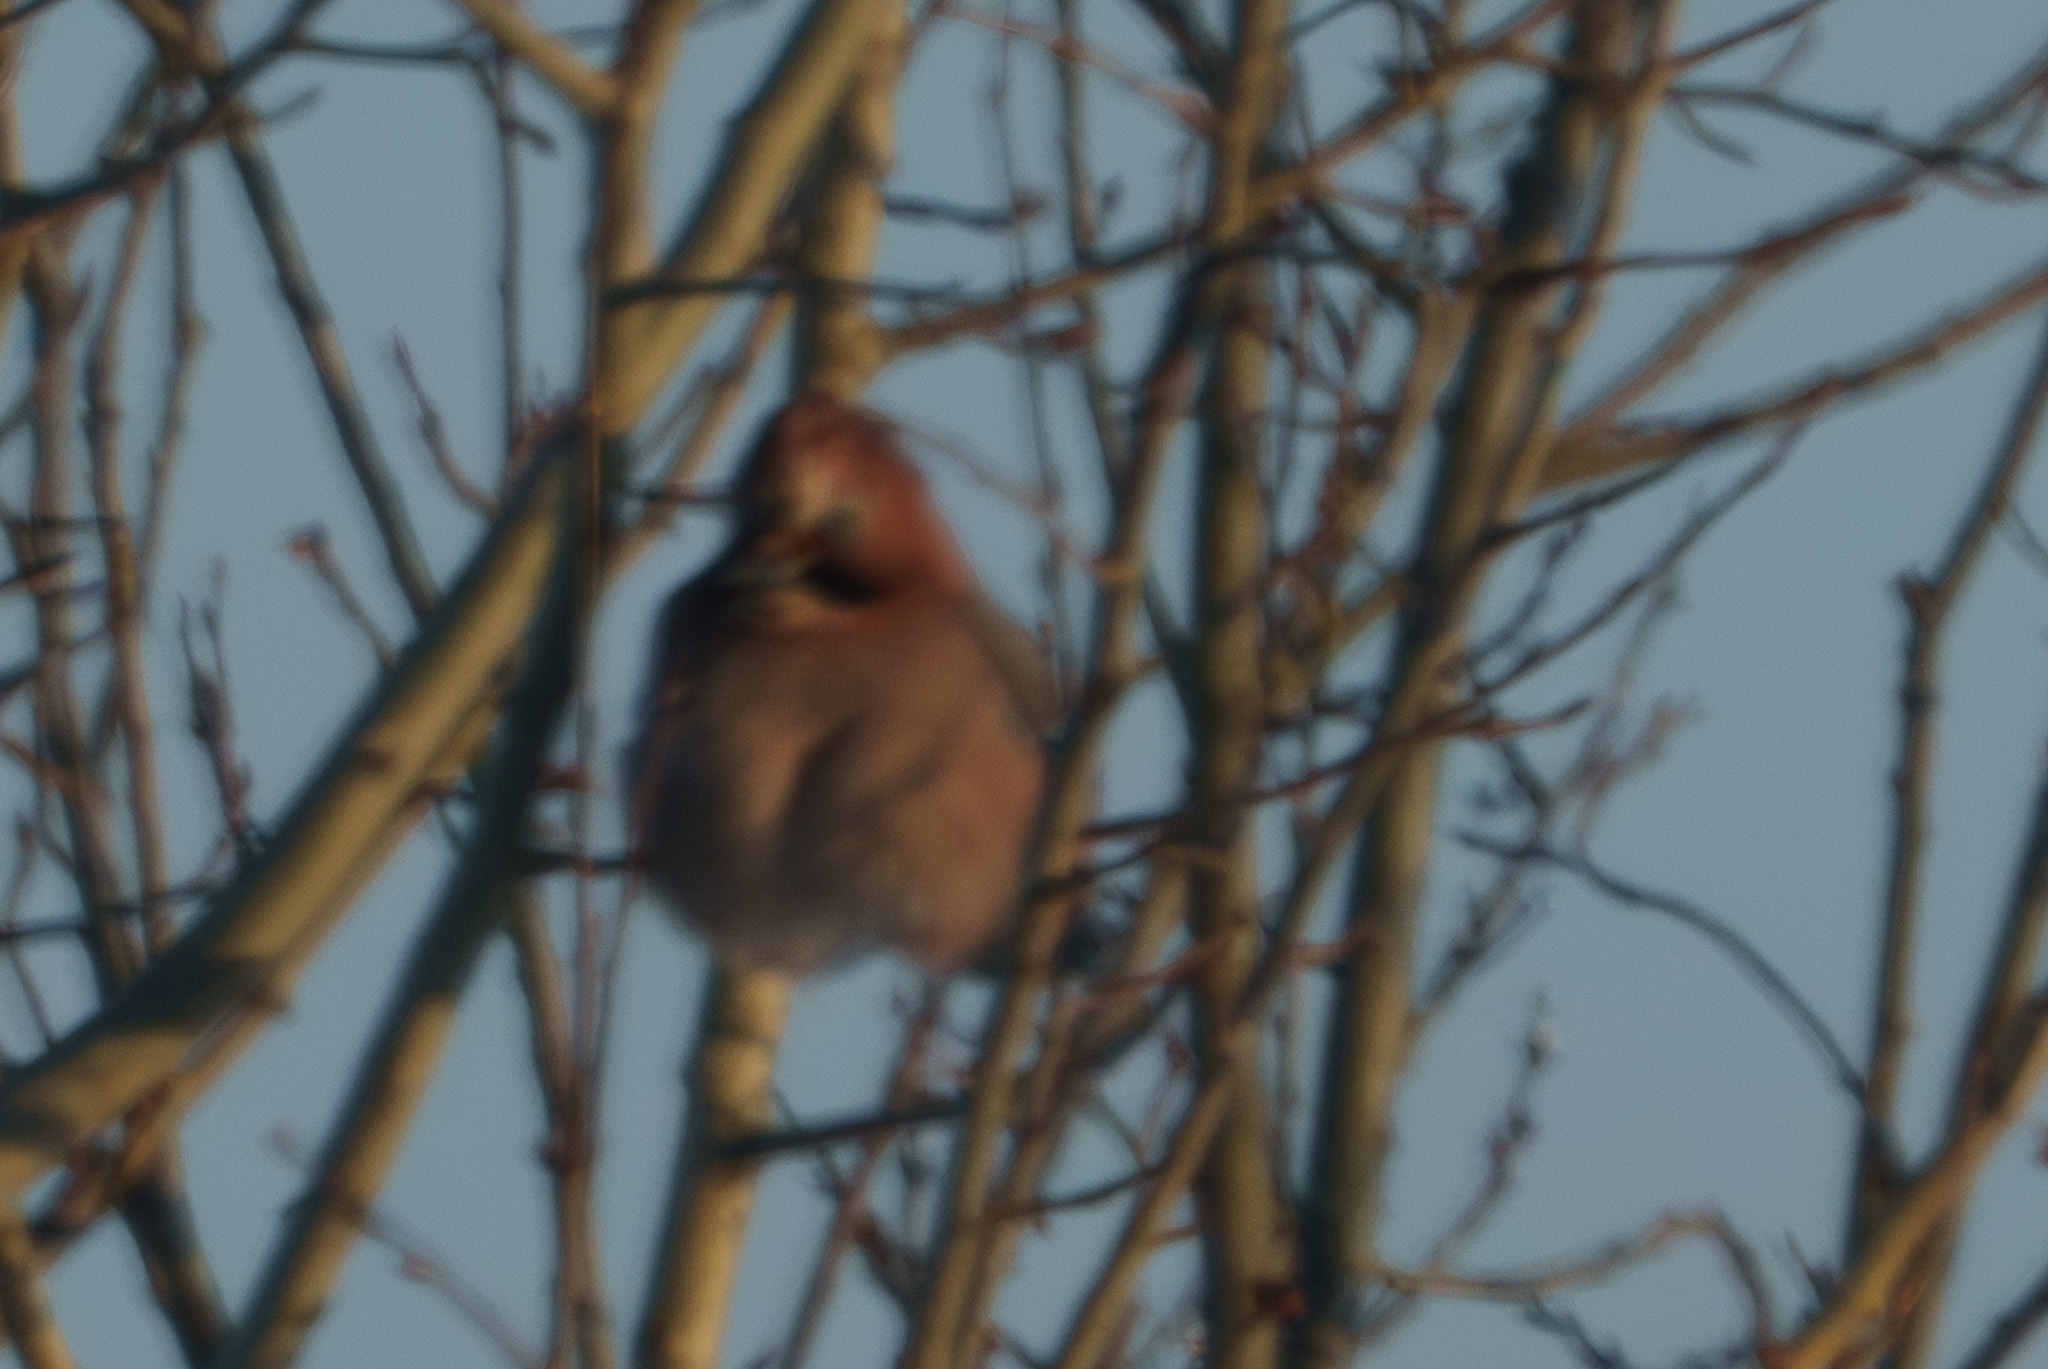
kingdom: Animalia
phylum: Chordata
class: Aves
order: Passeriformes
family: Corvidae
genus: Garrulus
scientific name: Garrulus glandarius
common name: Eurasian jay
